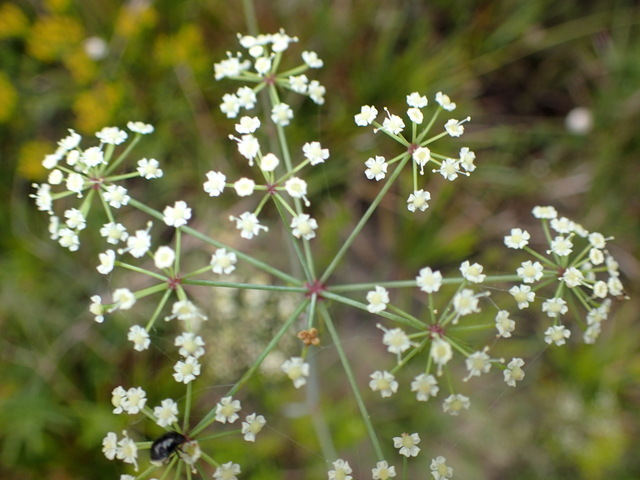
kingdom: Plantae
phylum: Tracheophyta
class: Magnoliopsida
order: Apiales
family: Apiaceae
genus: Tiedemannia
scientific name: Tiedemannia filiformis
